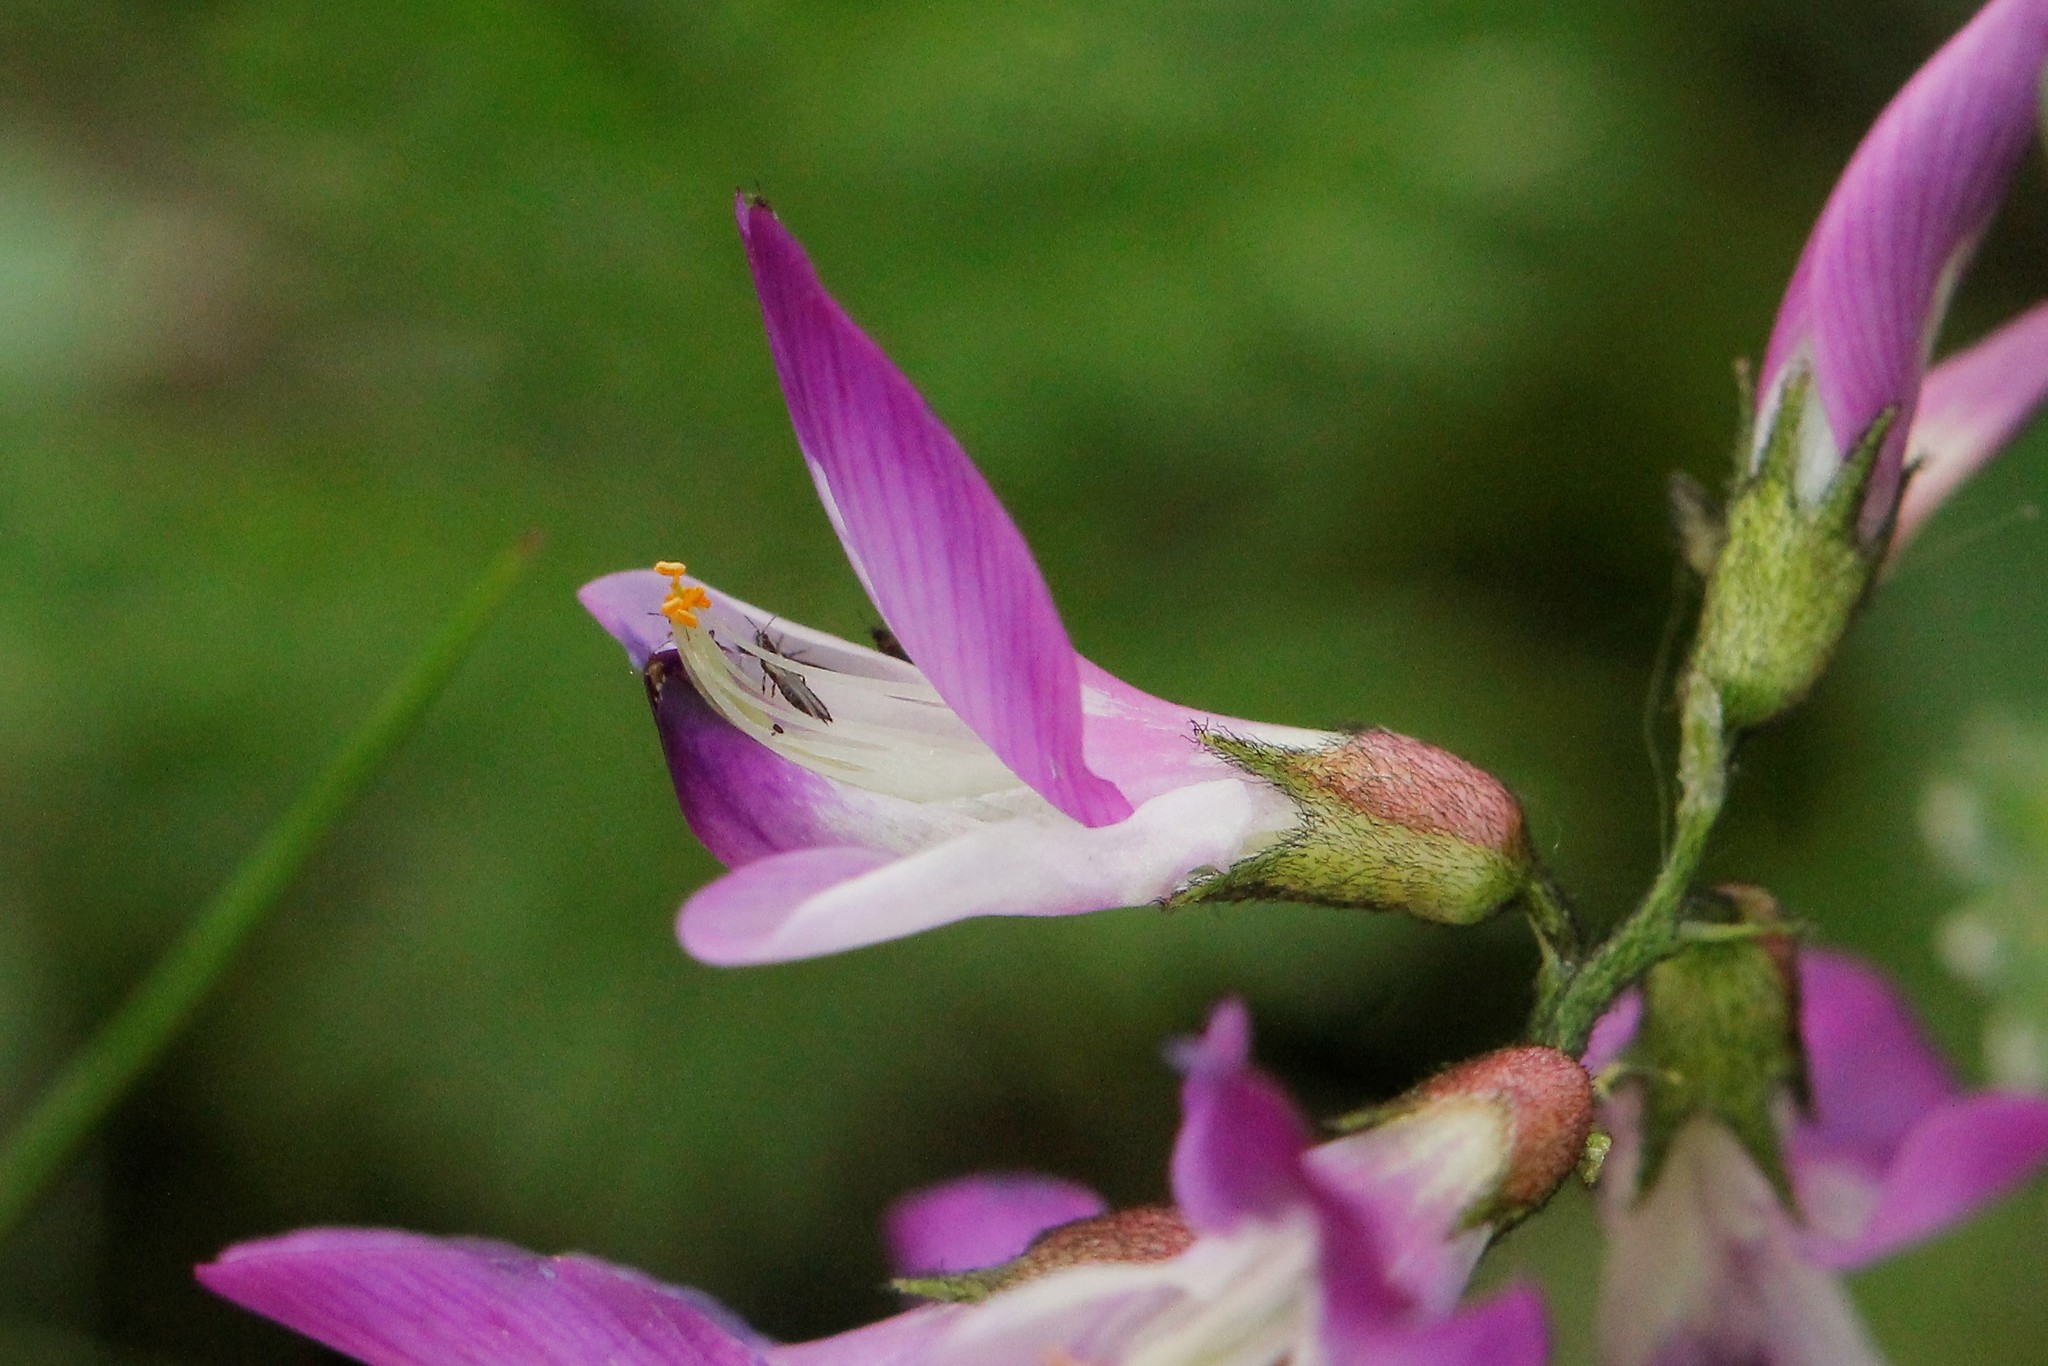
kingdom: Plantae
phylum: Tracheophyta
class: Magnoliopsida
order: Fabales
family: Fabaceae
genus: Astragalus
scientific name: Astragalus alpinus
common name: Alpine milk-vetch
